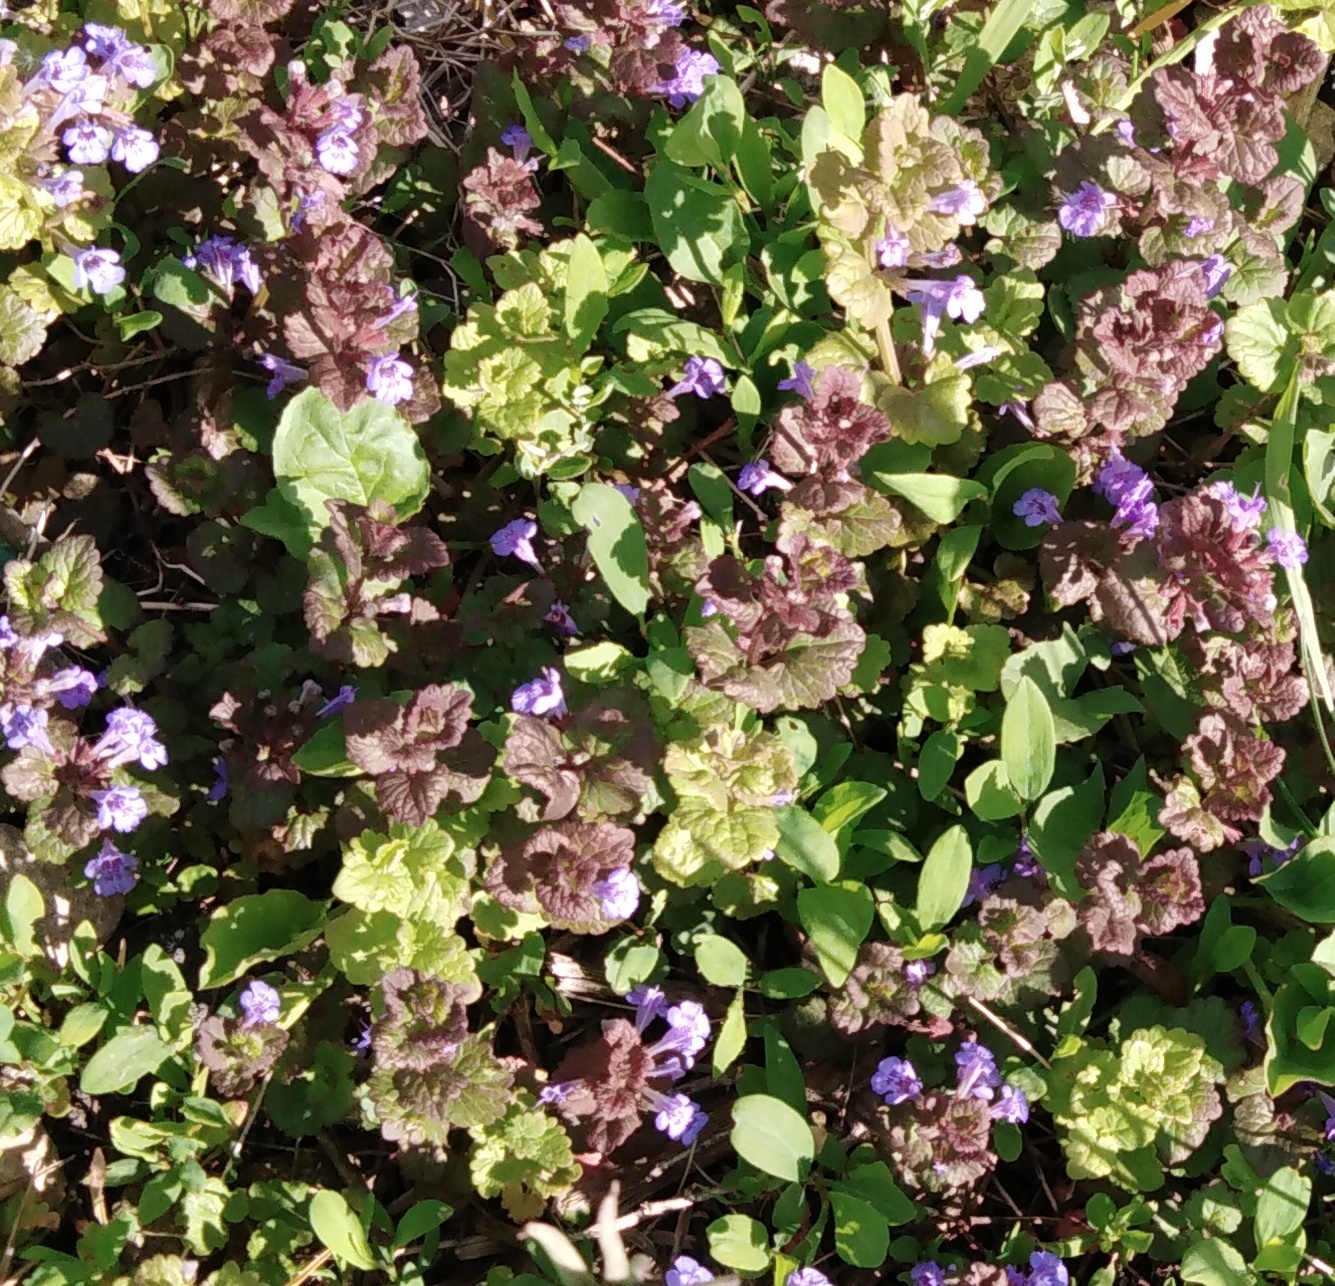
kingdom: Plantae
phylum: Tracheophyta
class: Magnoliopsida
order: Lamiales
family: Lamiaceae
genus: Glechoma
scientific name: Glechoma hederacea
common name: Ground ivy
